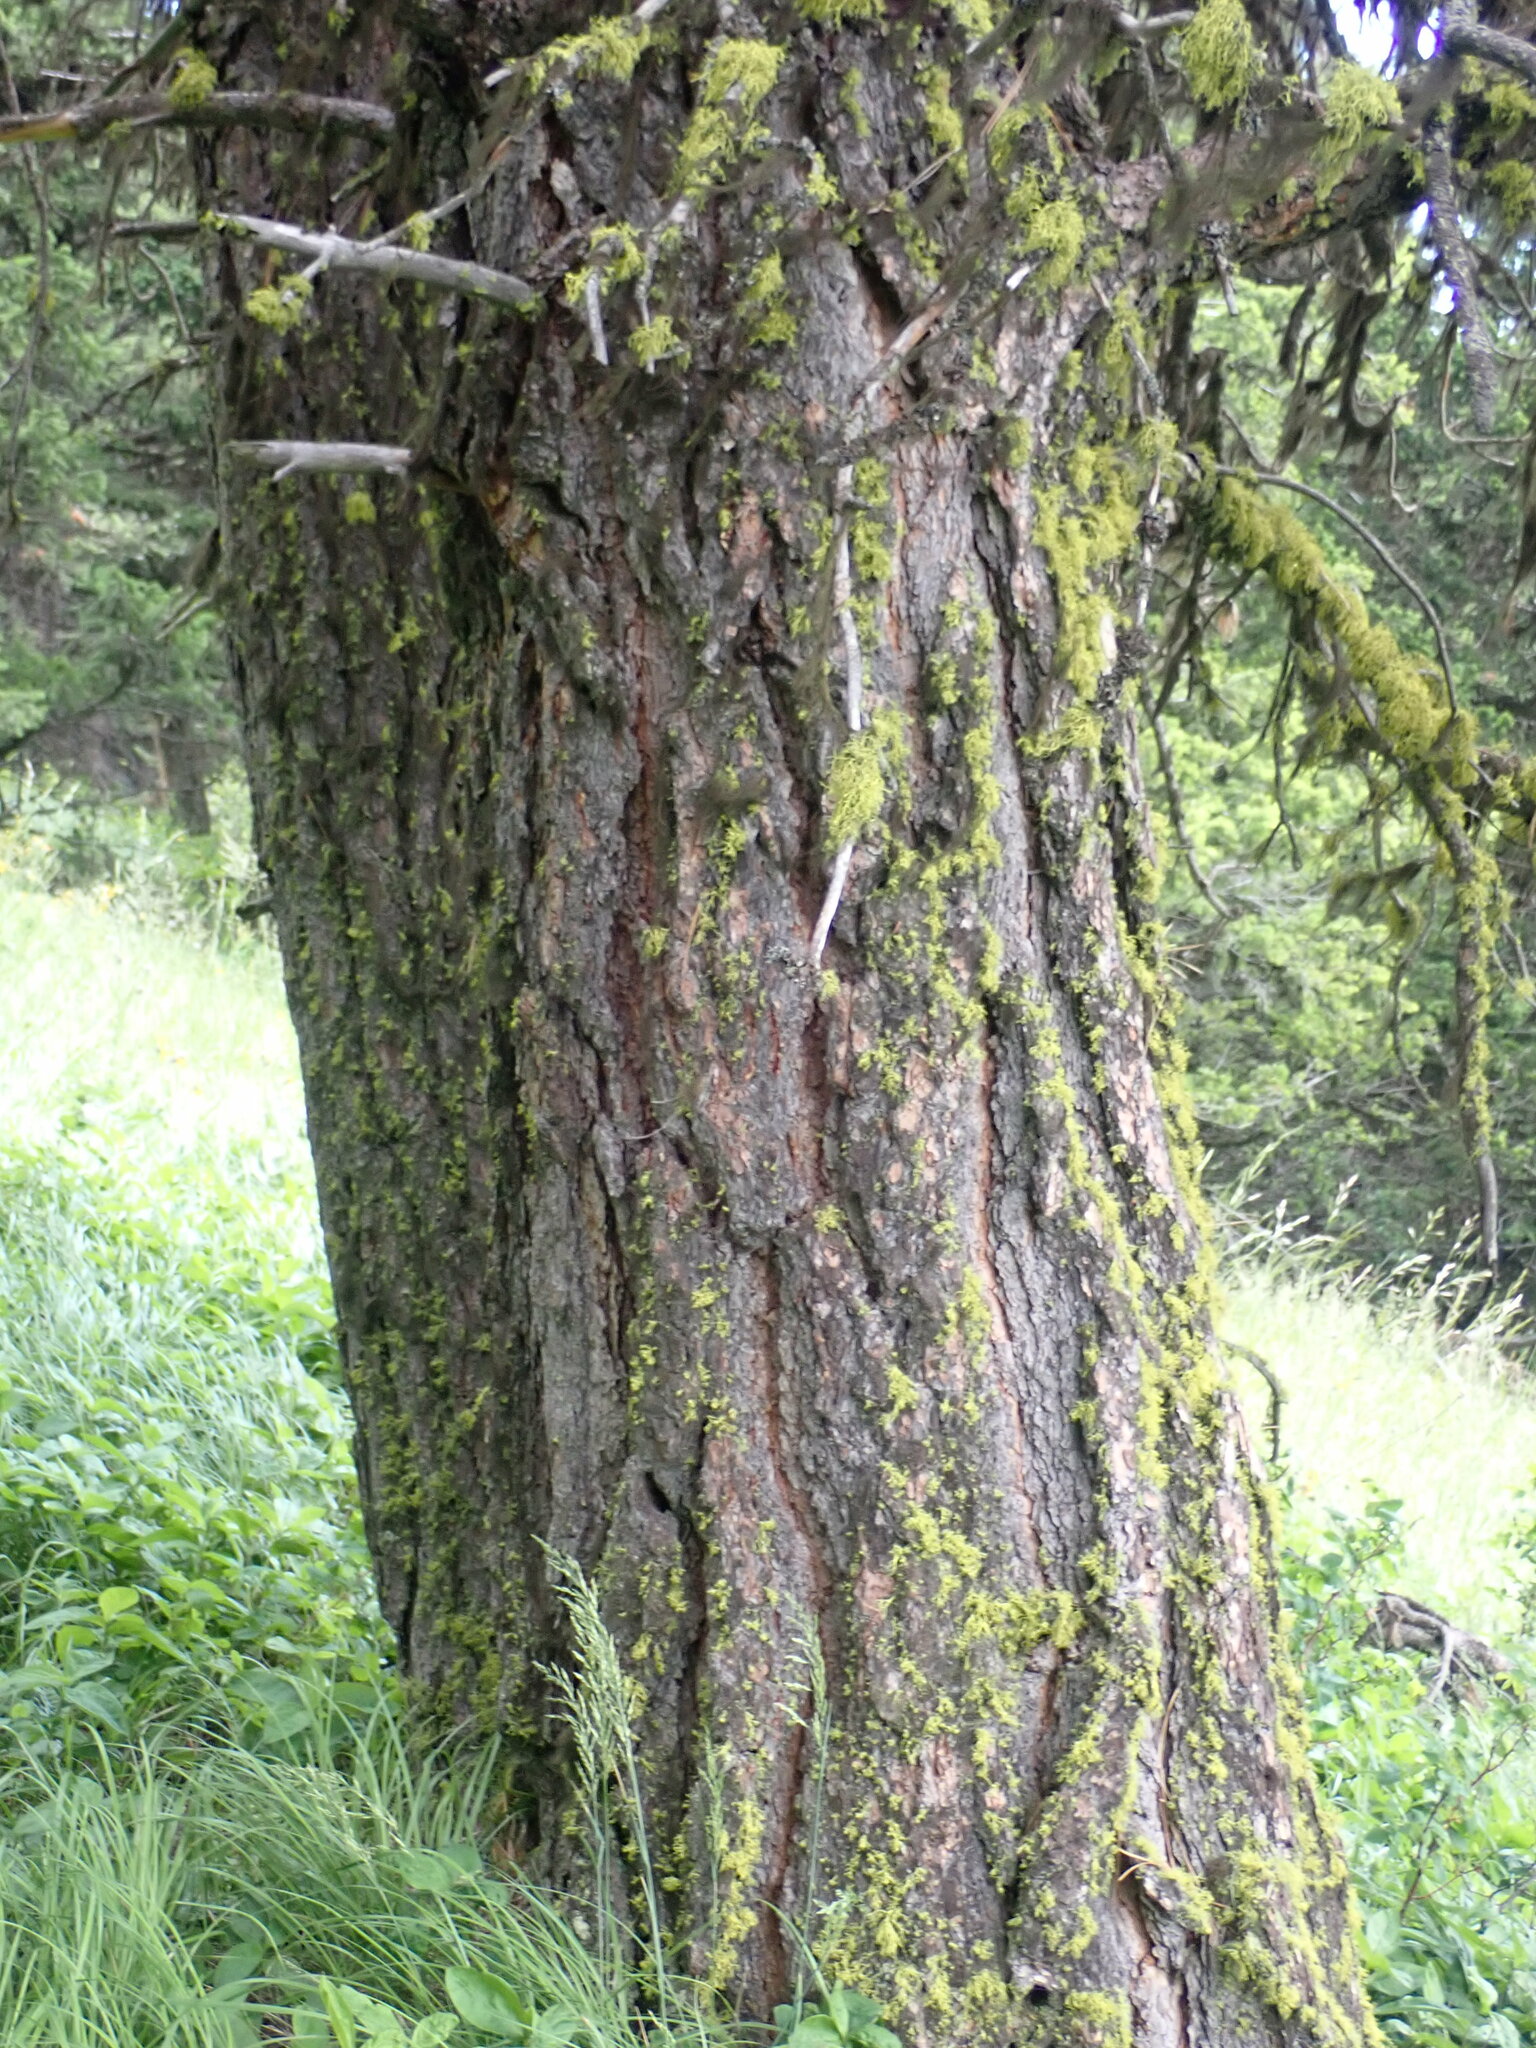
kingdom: Plantae
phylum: Tracheophyta
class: Pinopsida
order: Pinales
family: Pinaceae
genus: Pinus
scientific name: Pinus ponderosa
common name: Western yellow-pine
